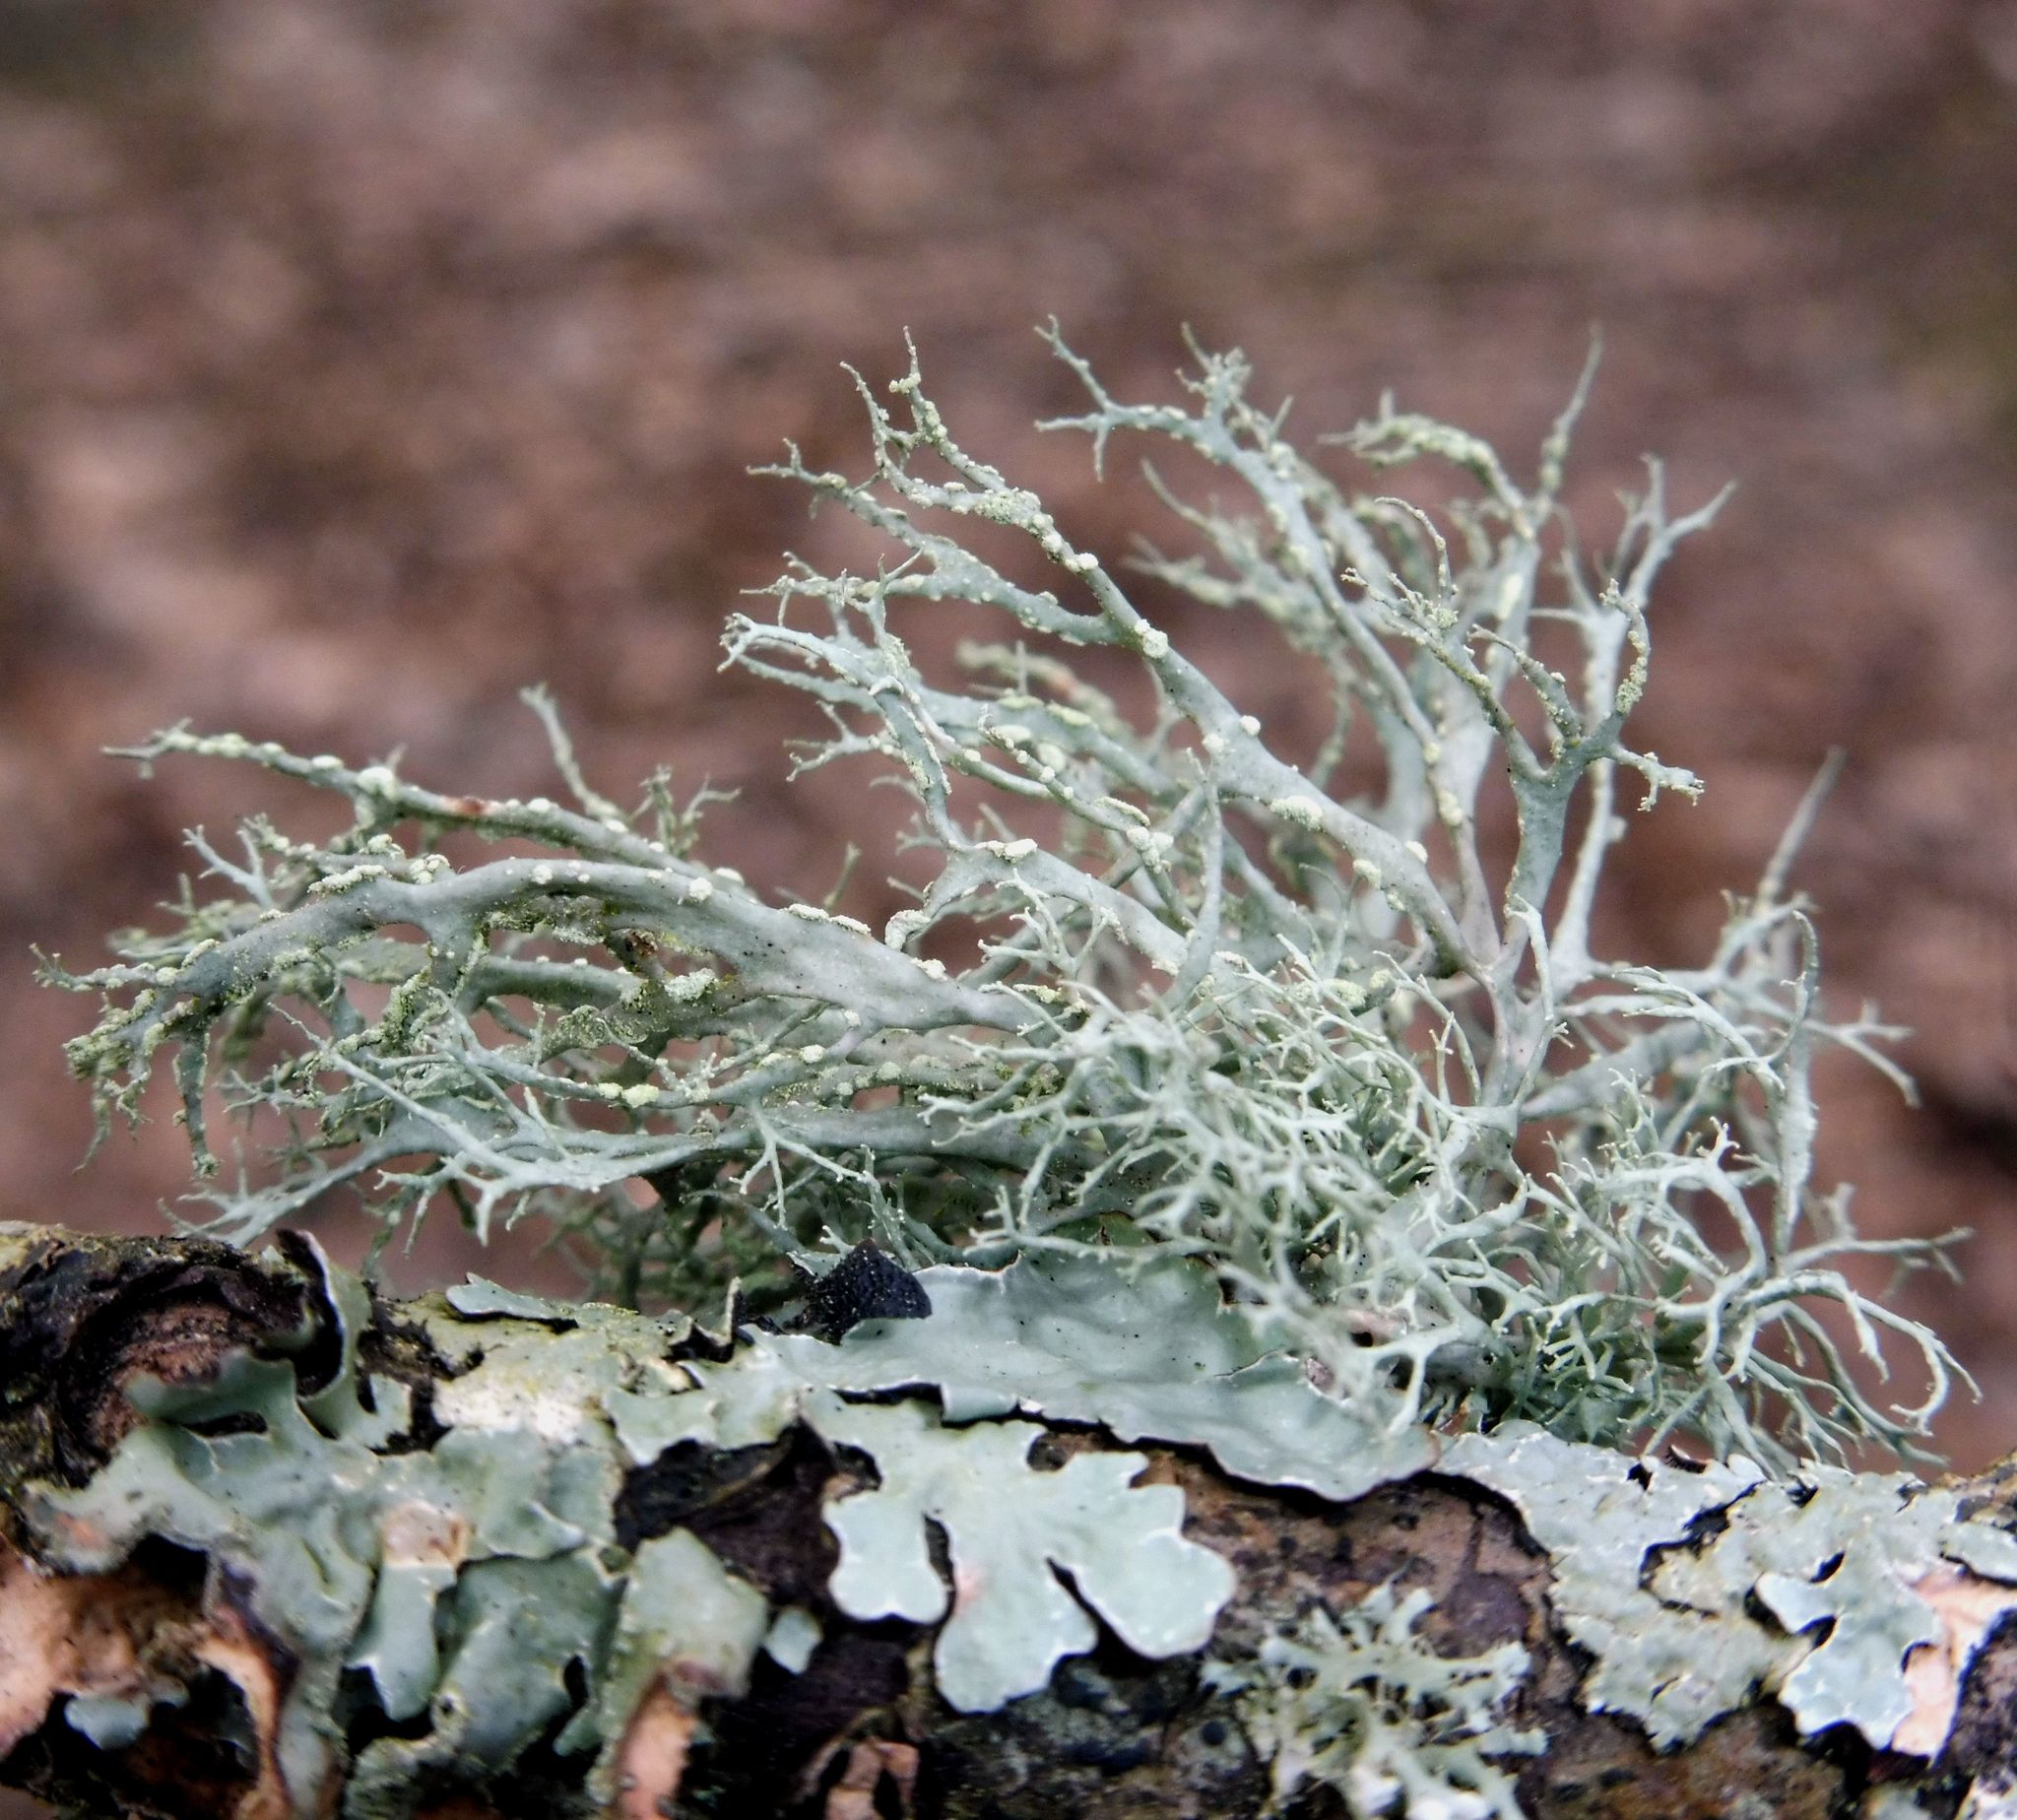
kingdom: Fungi
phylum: Ascomycota
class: Lecanoromycetes
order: Lecanorales
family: Ramalinaceae
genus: Ramalina
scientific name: Ramalina farinacea
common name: Farinose cartilage lichen
